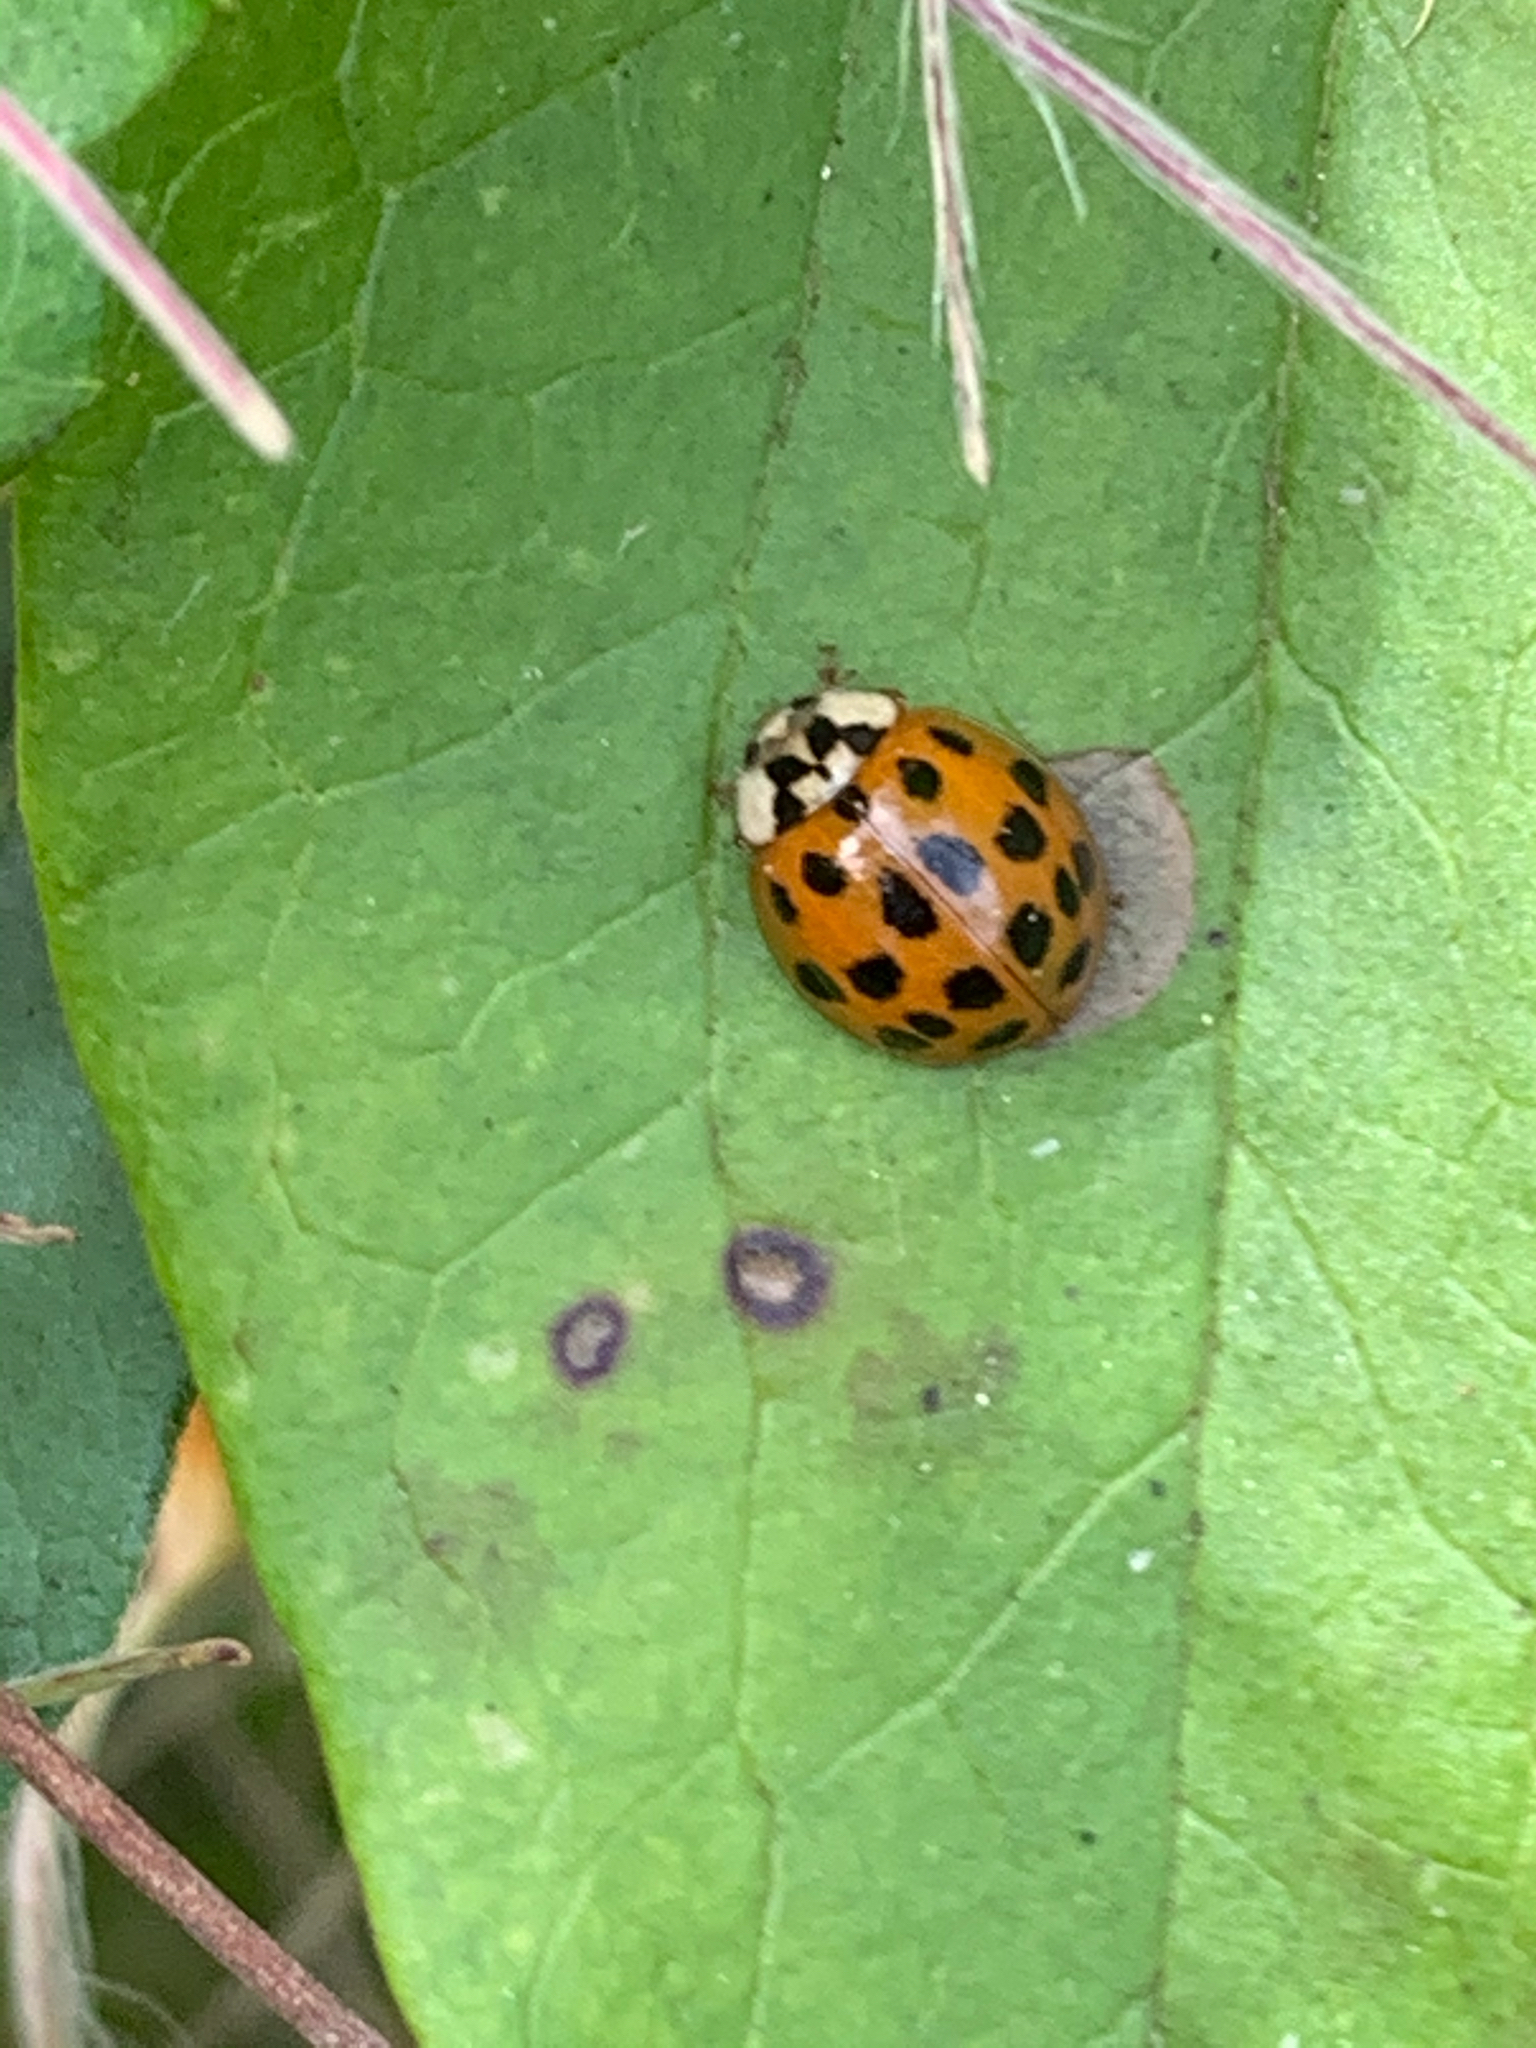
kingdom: Animalia
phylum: Arthropoda
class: Insecta
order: Coleoptera
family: Coccinellidae
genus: Harmonia
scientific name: Harmonia axyridis
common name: Harlequin ladybird
